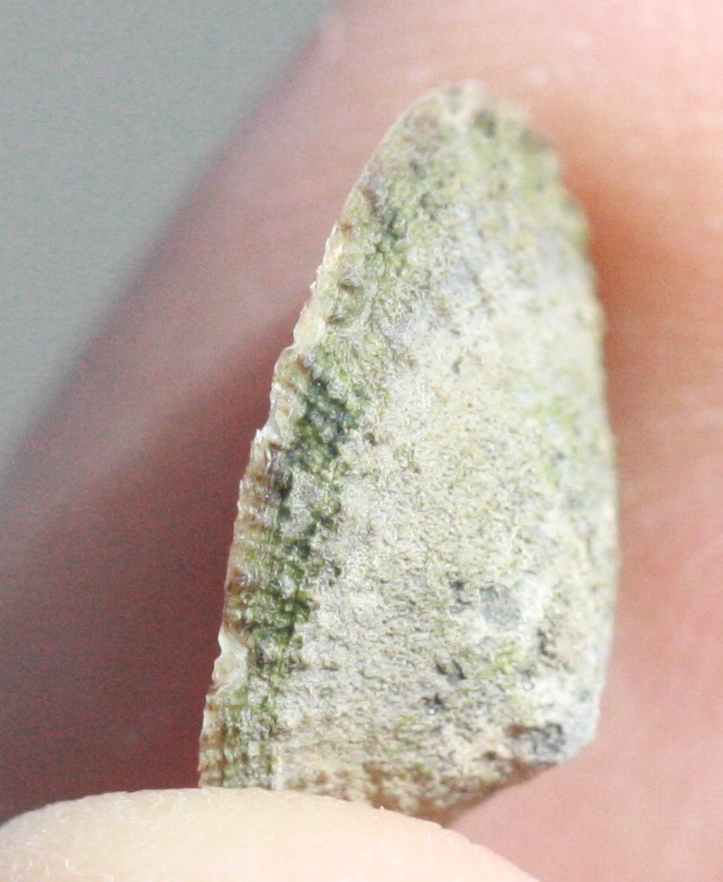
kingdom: Animalia
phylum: Mollusca
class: Gastropoda
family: Lottiidae
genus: Lottia
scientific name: Lottia limatula
